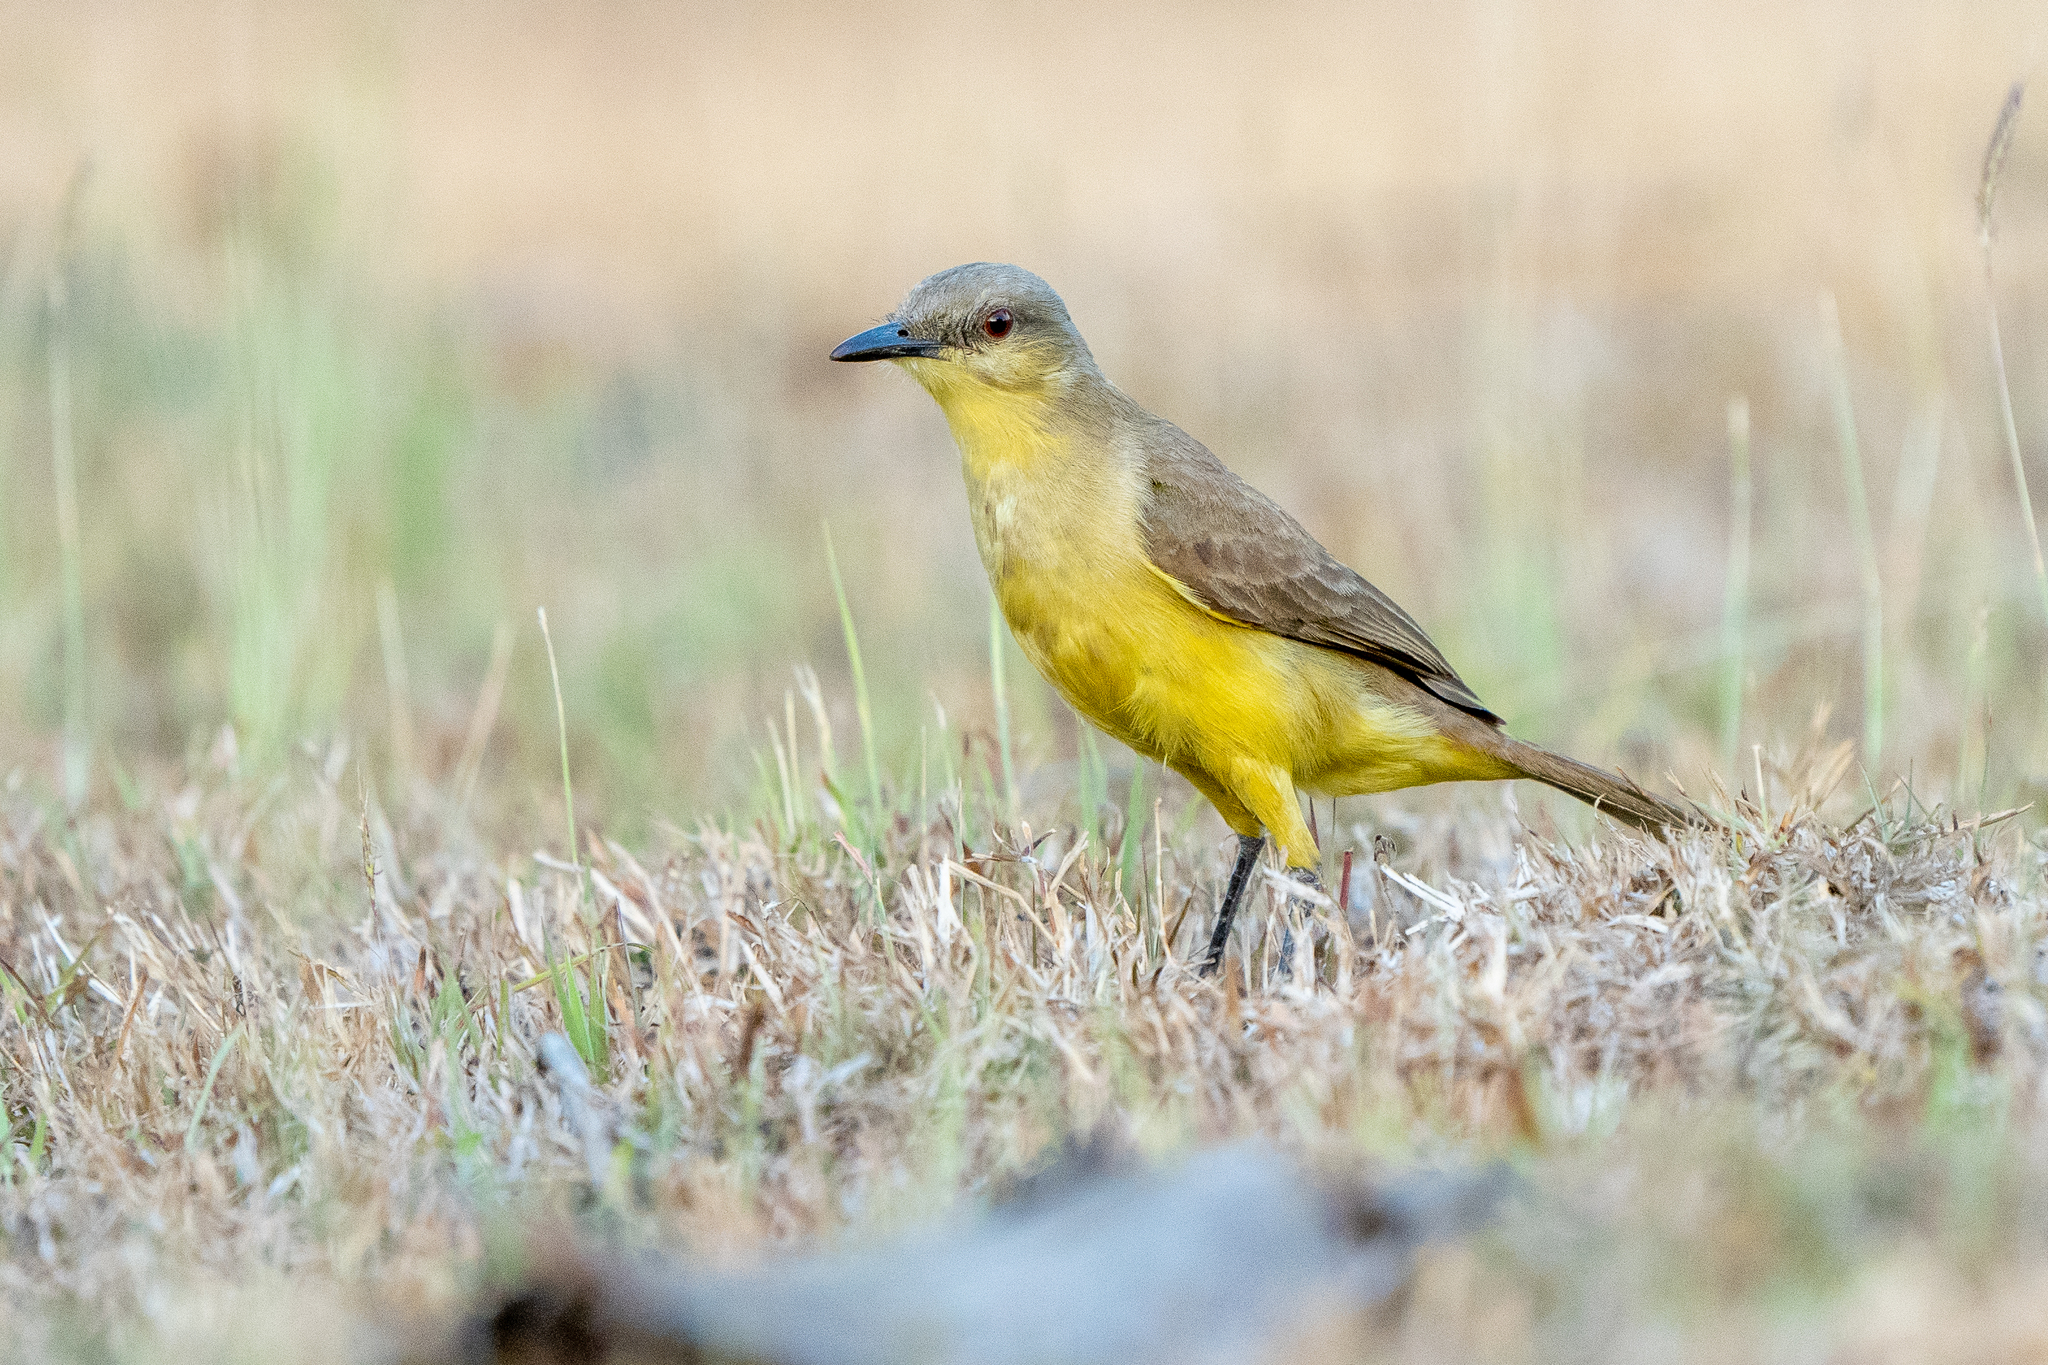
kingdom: Animalia
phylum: Chordata
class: Aves
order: Passeriformes
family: Tyrannidae
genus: Machetornis
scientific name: Machetornis rixosa
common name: Cattle tyrant
